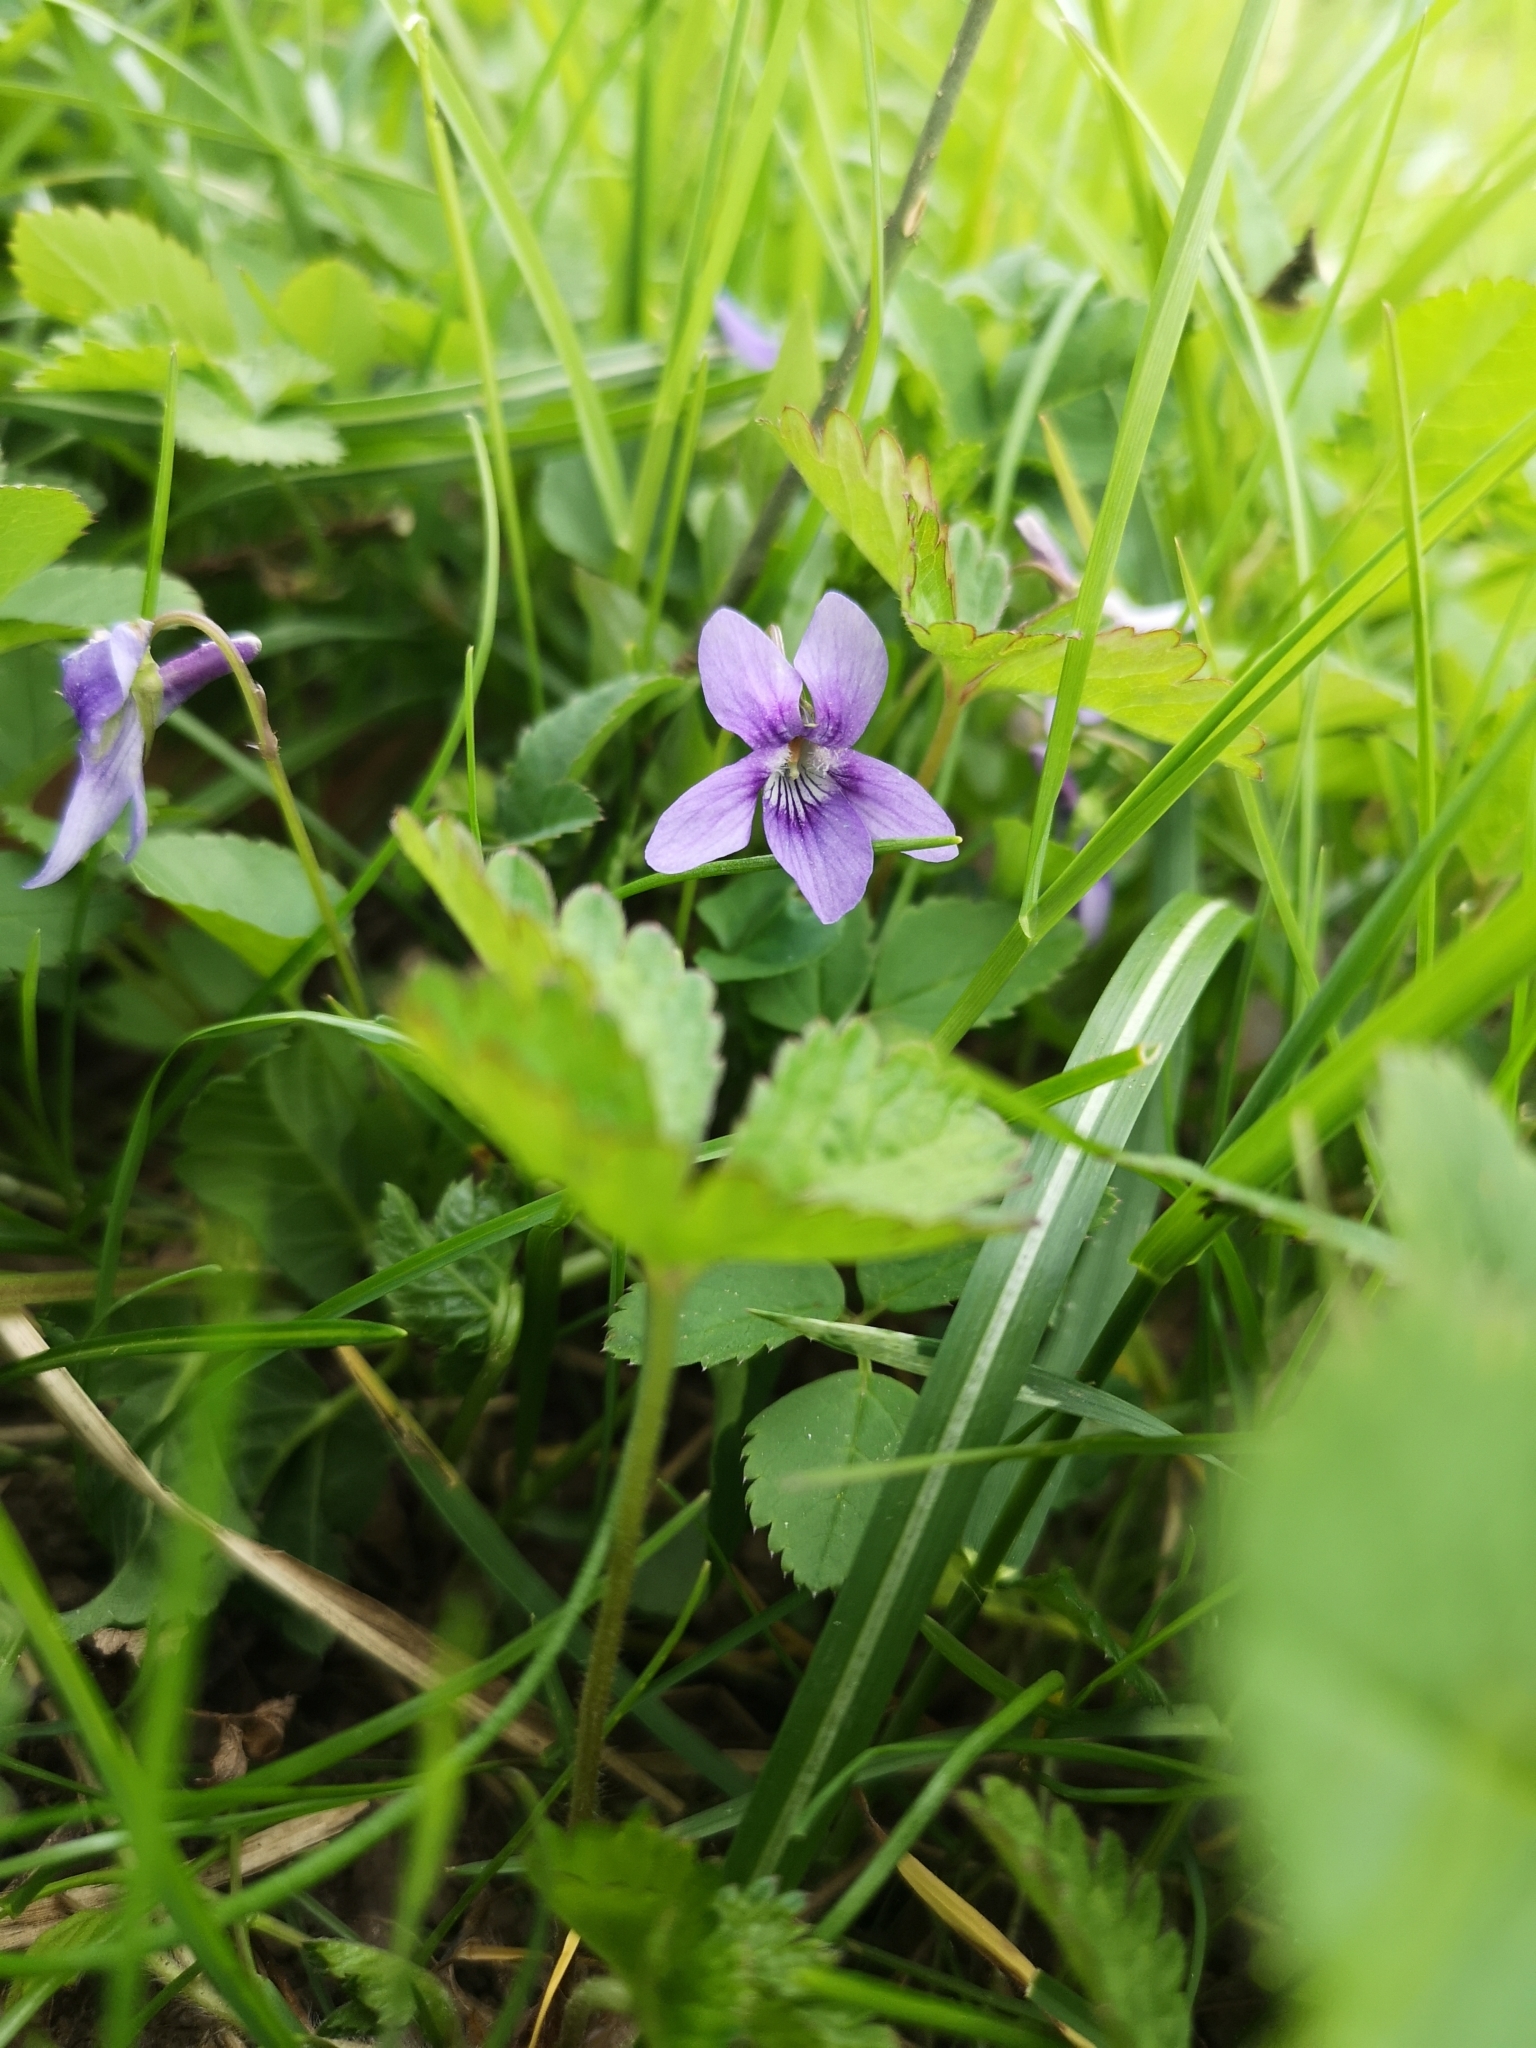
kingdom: Plantae
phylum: Tracheophyta
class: Magnoliopsida
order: Malpighiales
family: Violaceae
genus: Viola
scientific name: Viola reichenbachiana
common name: Early dog-violet
